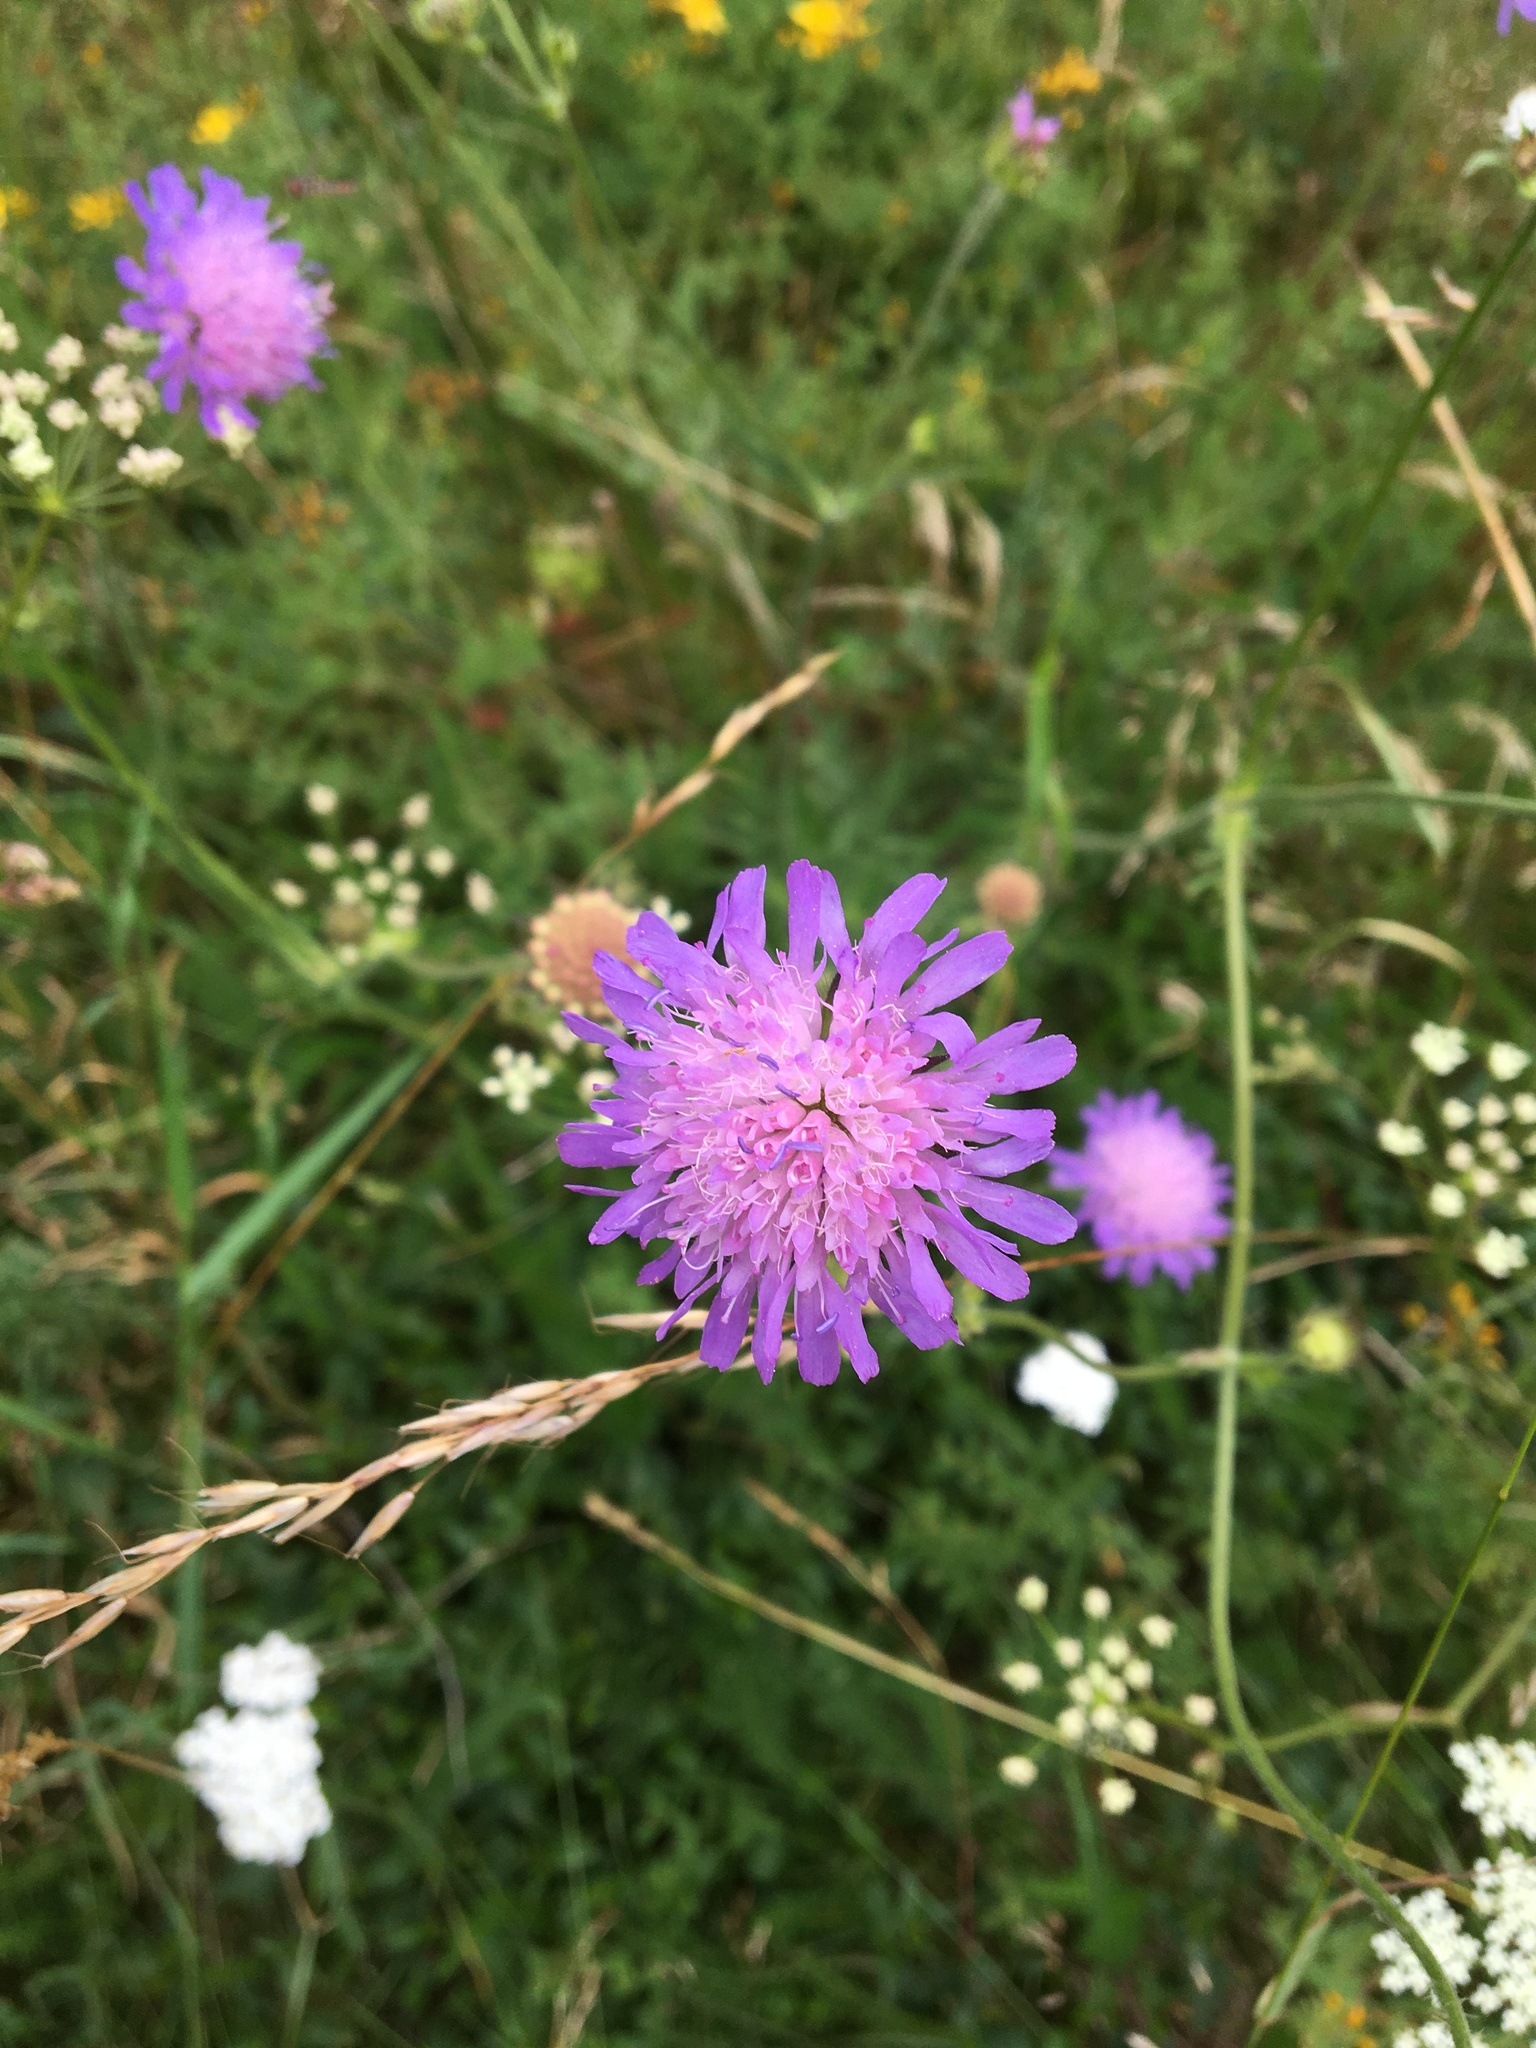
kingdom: Plantae
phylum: Tracheophyta
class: Magnoliopsida
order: Dipsacales
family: Caprifoliaceae
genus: Knautia
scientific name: Knautia arvensis
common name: Field scabiosa
